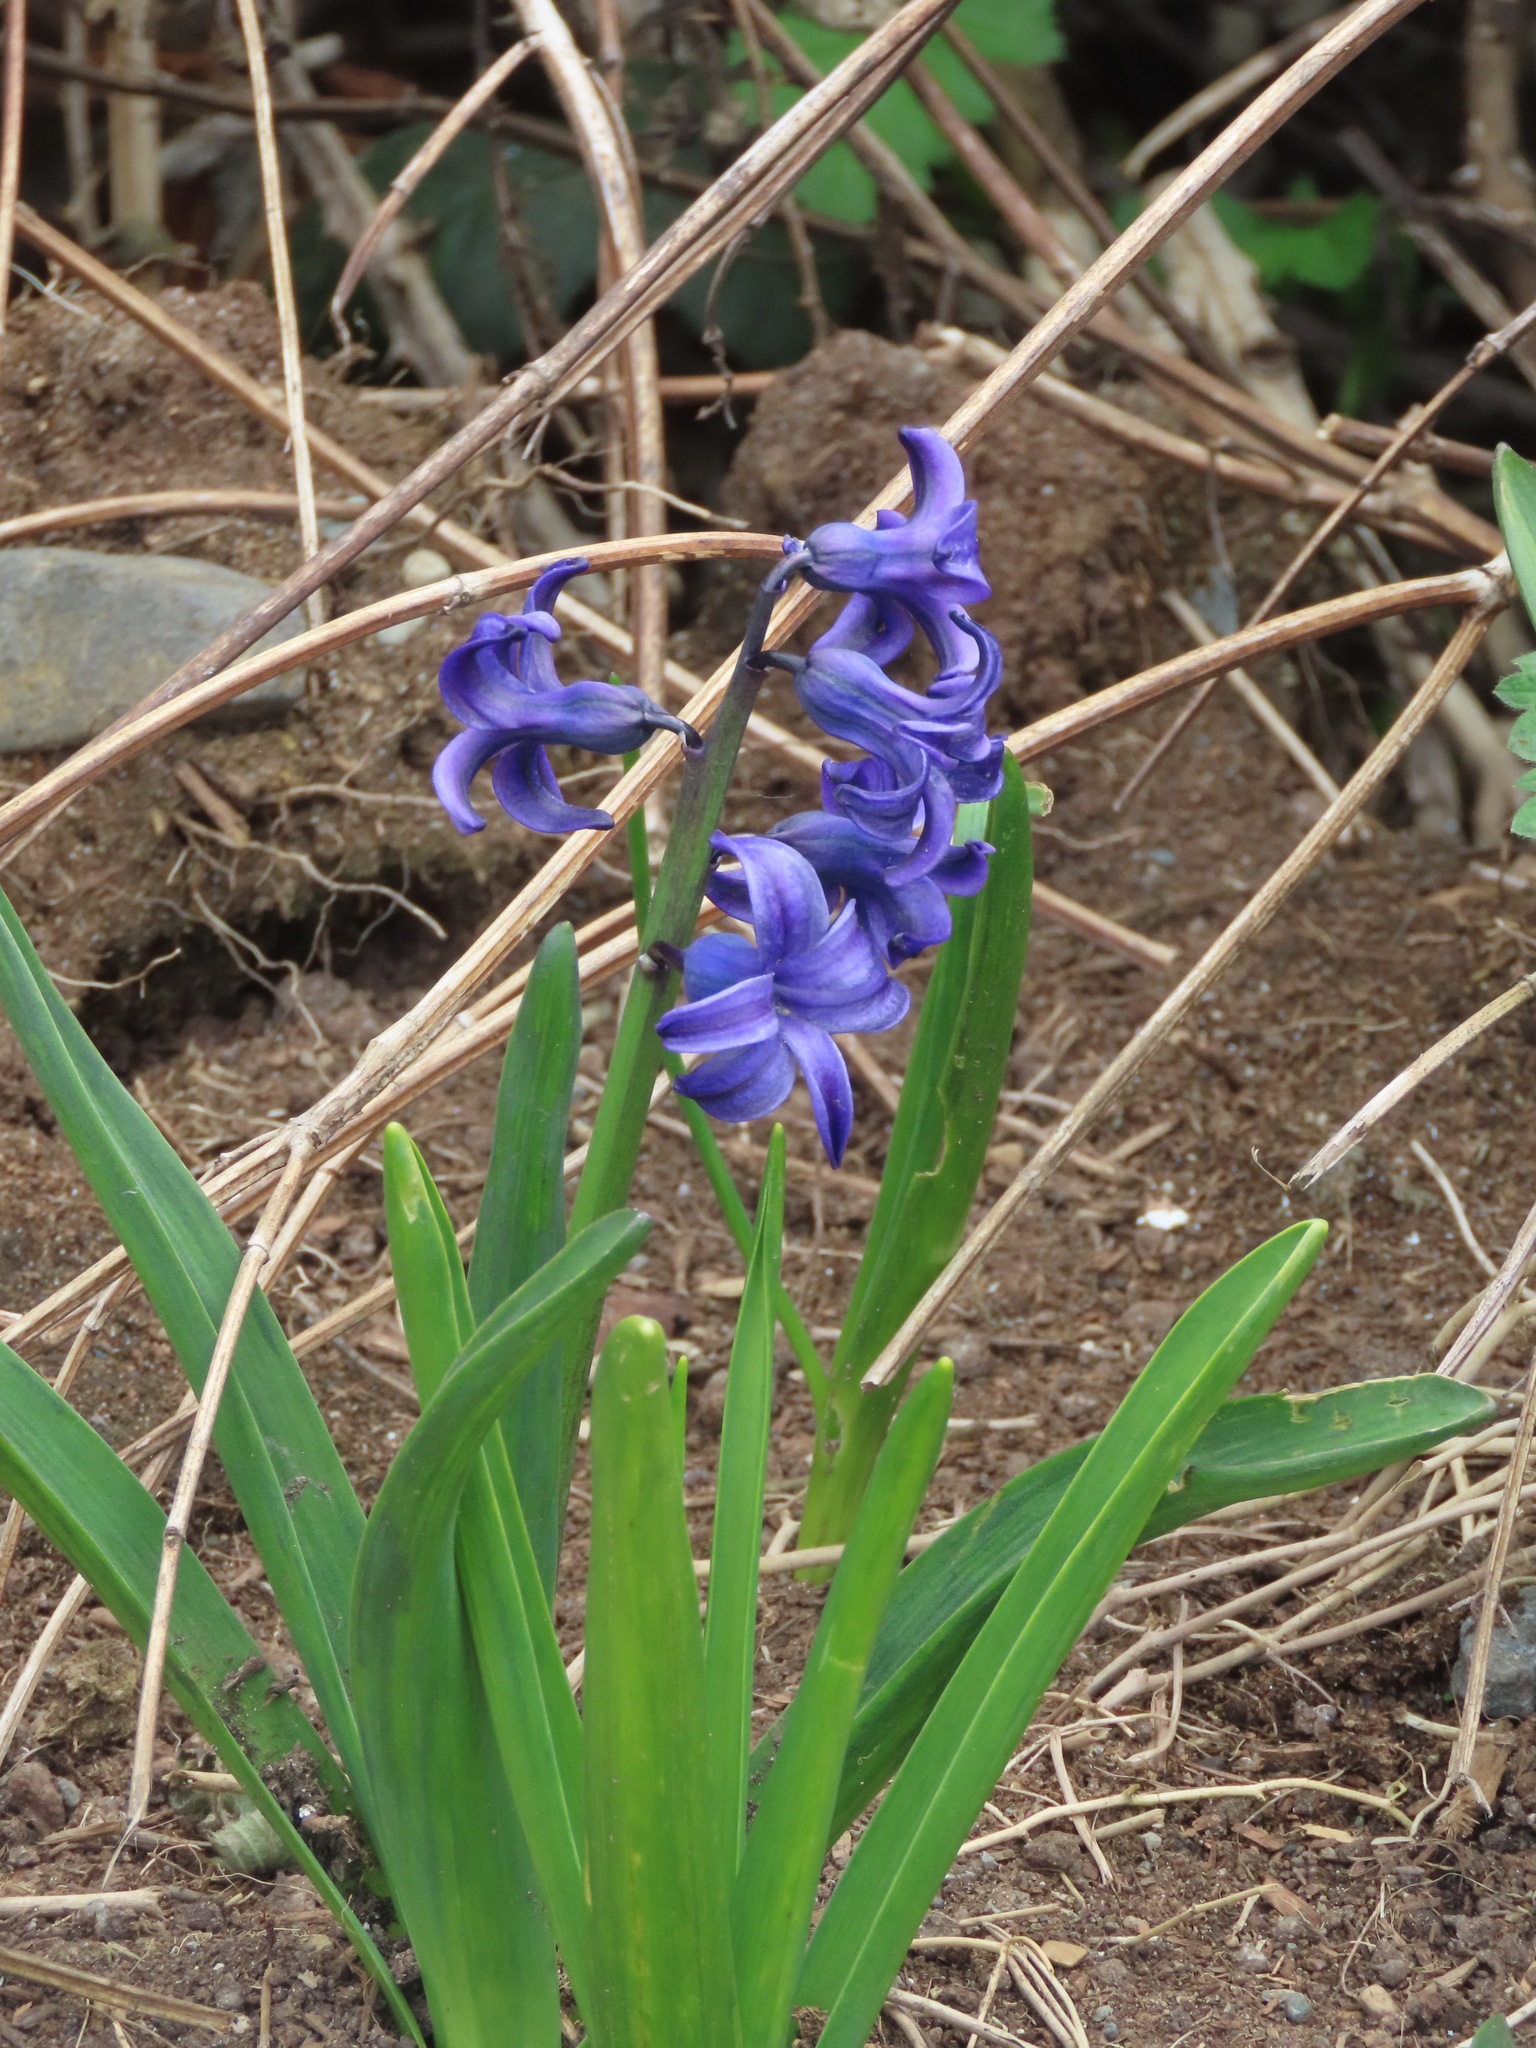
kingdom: Plantae
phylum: Tracheophyta
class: Liliopsida
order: Asparagales
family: Asparagaceae
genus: Hyacinthus
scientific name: Hyacinthus orientalis
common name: Hyacinth
